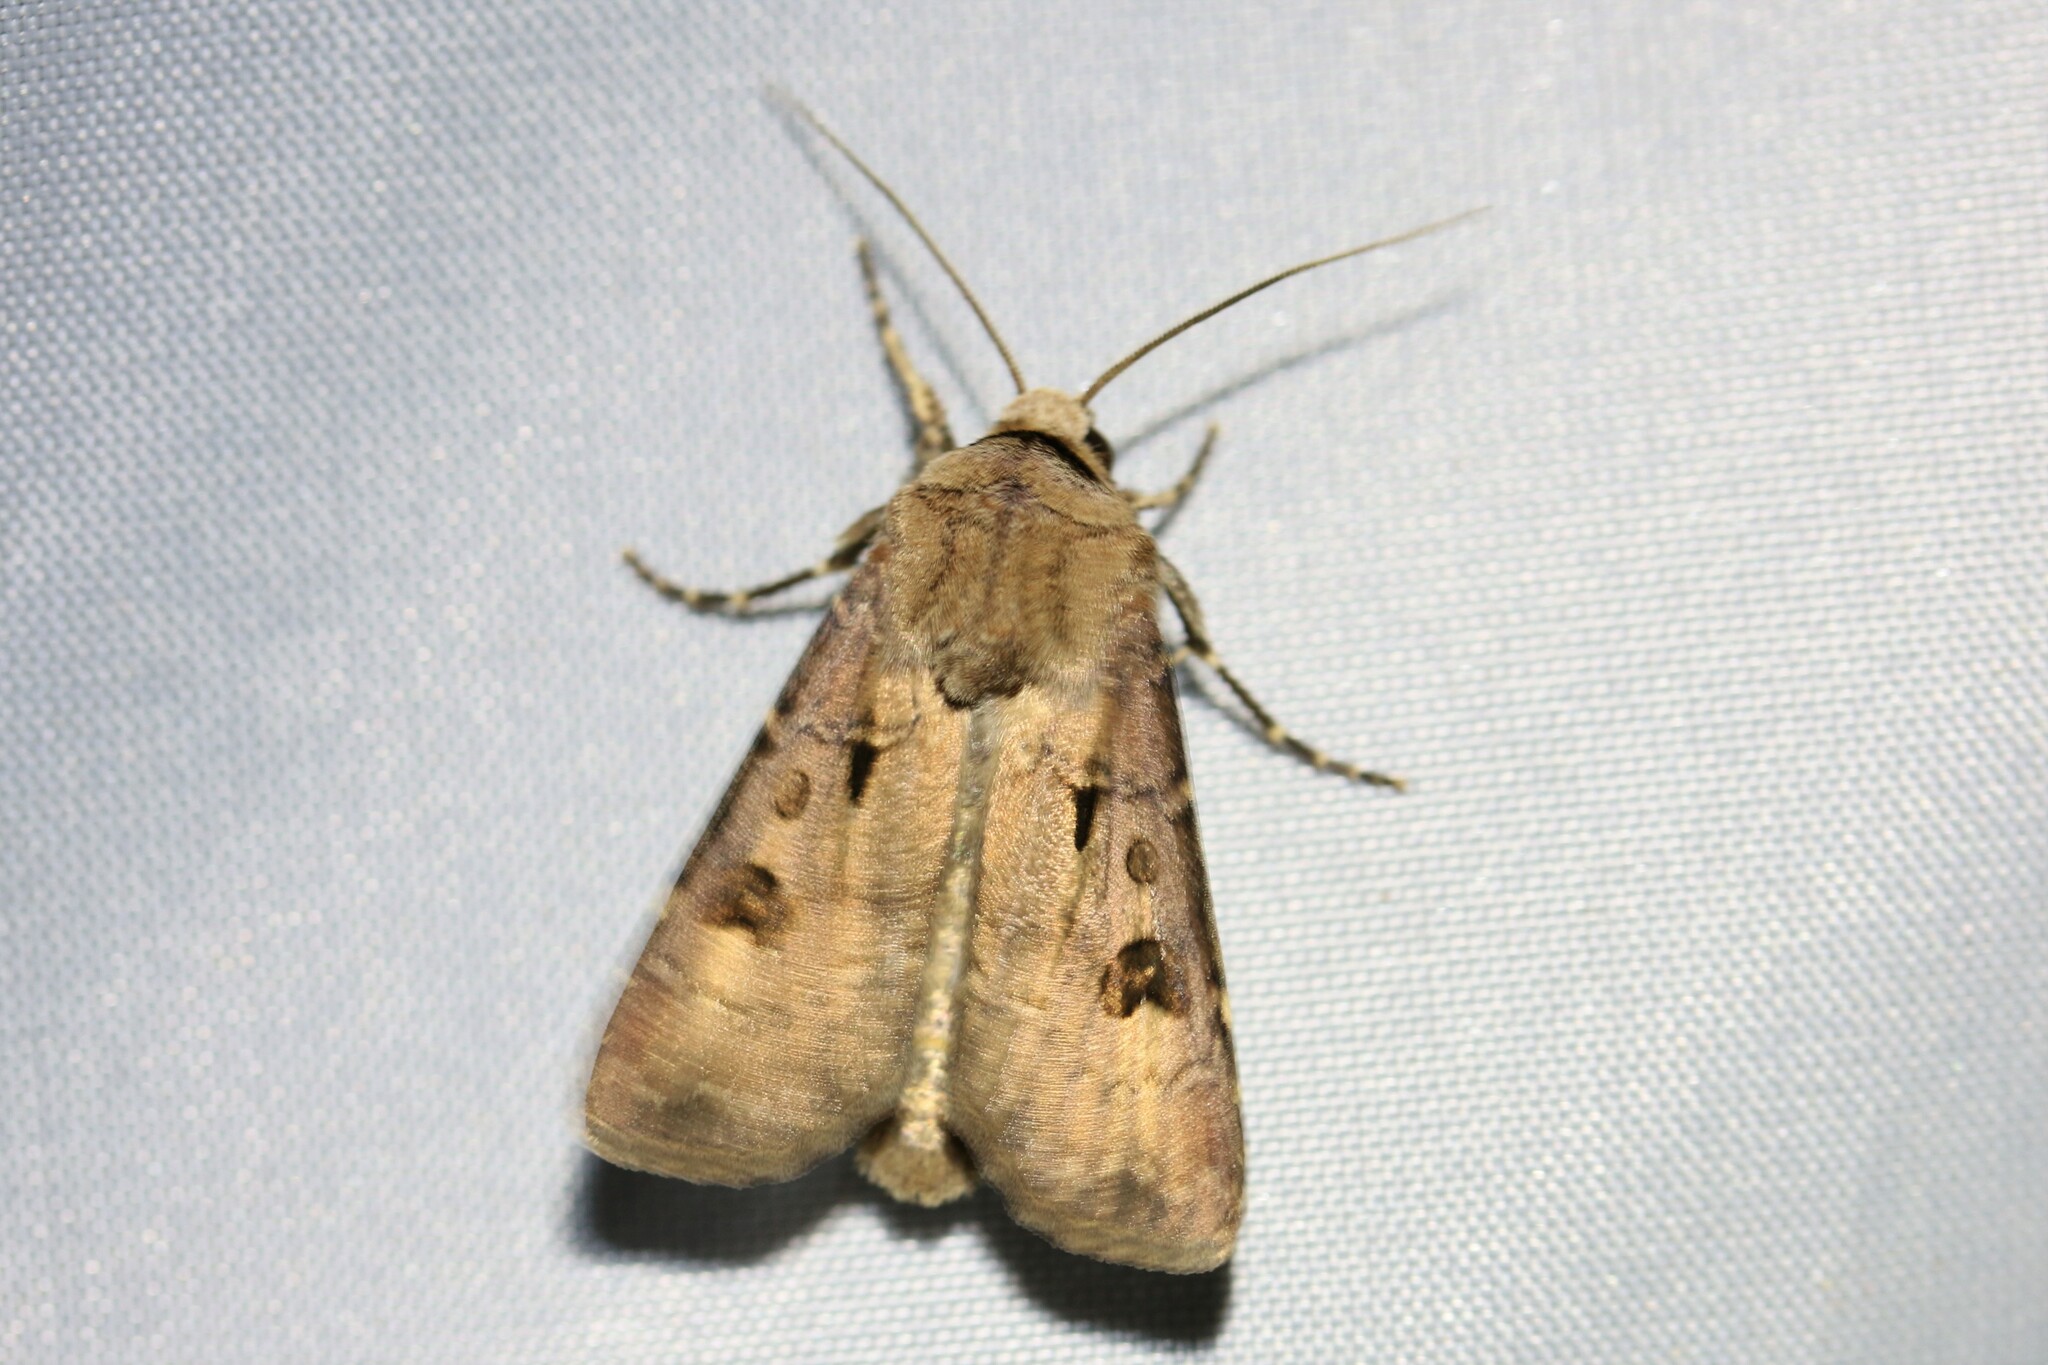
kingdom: Animalia
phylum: Arthropoda
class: Insecta
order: Lepidoptera
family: Noctuidae
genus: Agrotis
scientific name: Agrotis exclamationis
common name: Heart and dart
